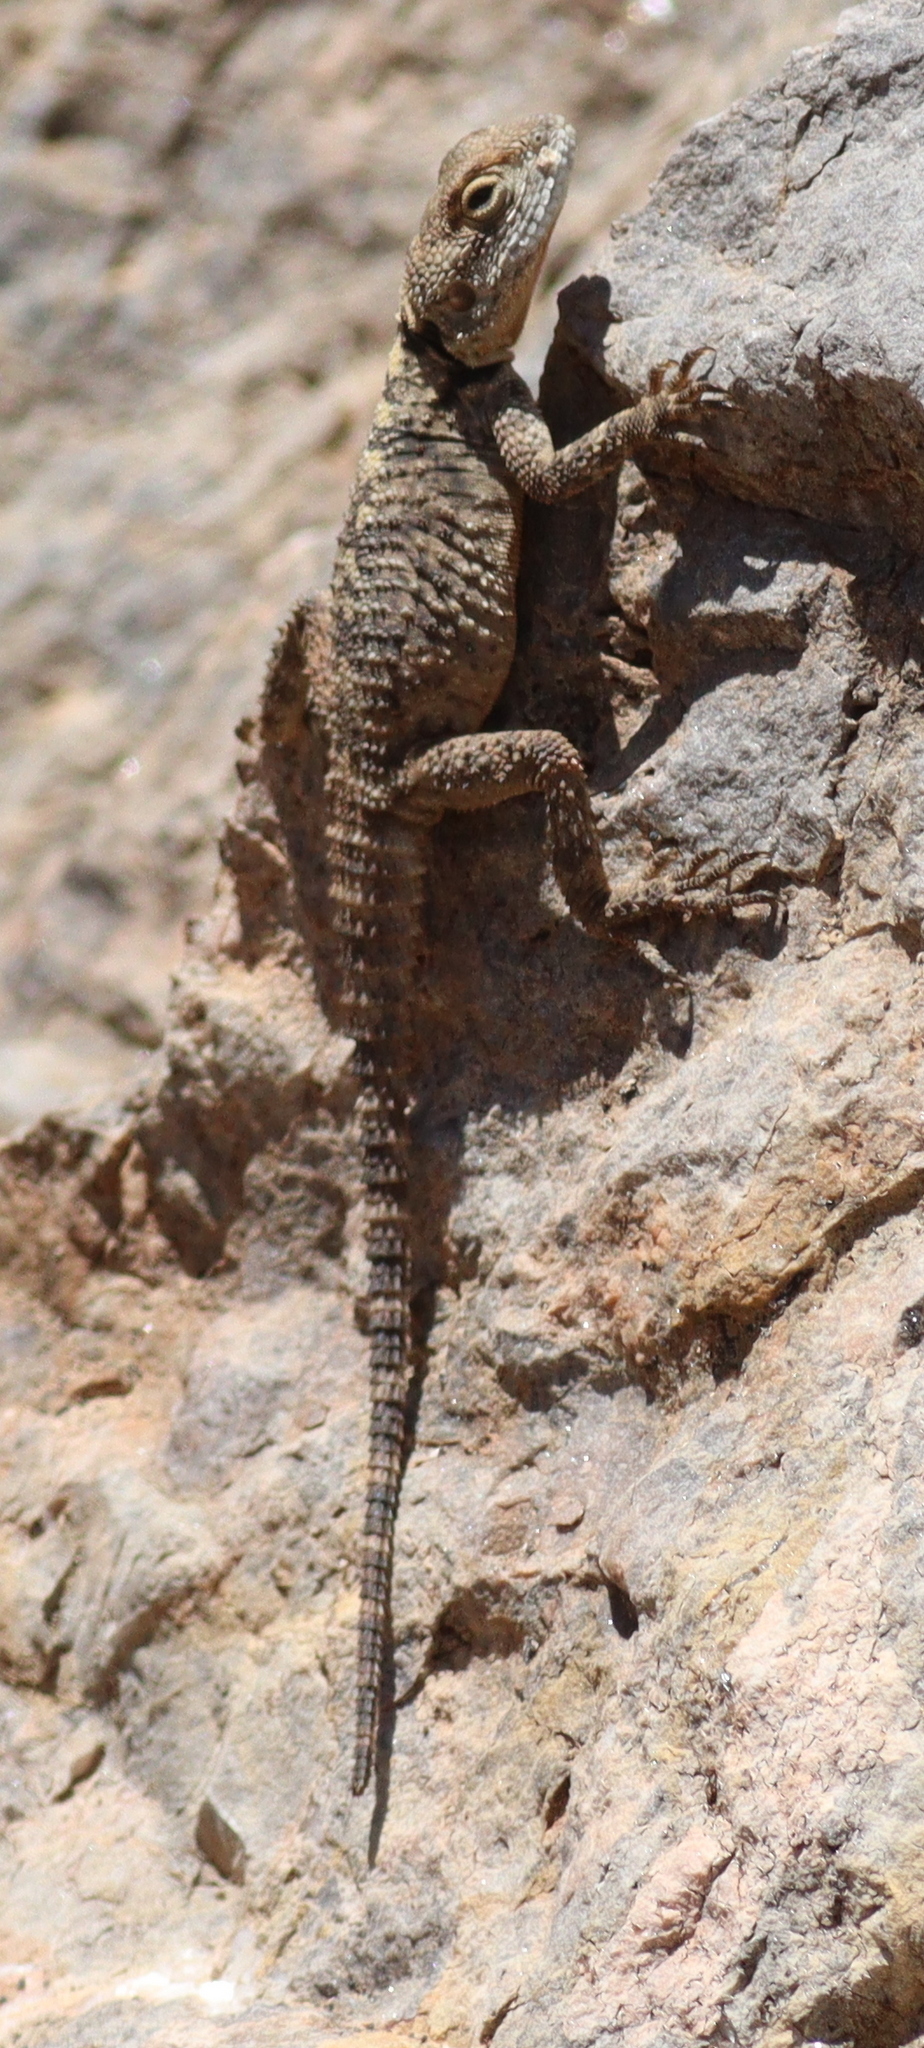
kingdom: Animalia
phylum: Chordata
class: Squamata
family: Agamidae
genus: Stellagama
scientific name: Stellagama stellio
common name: Starred agama
